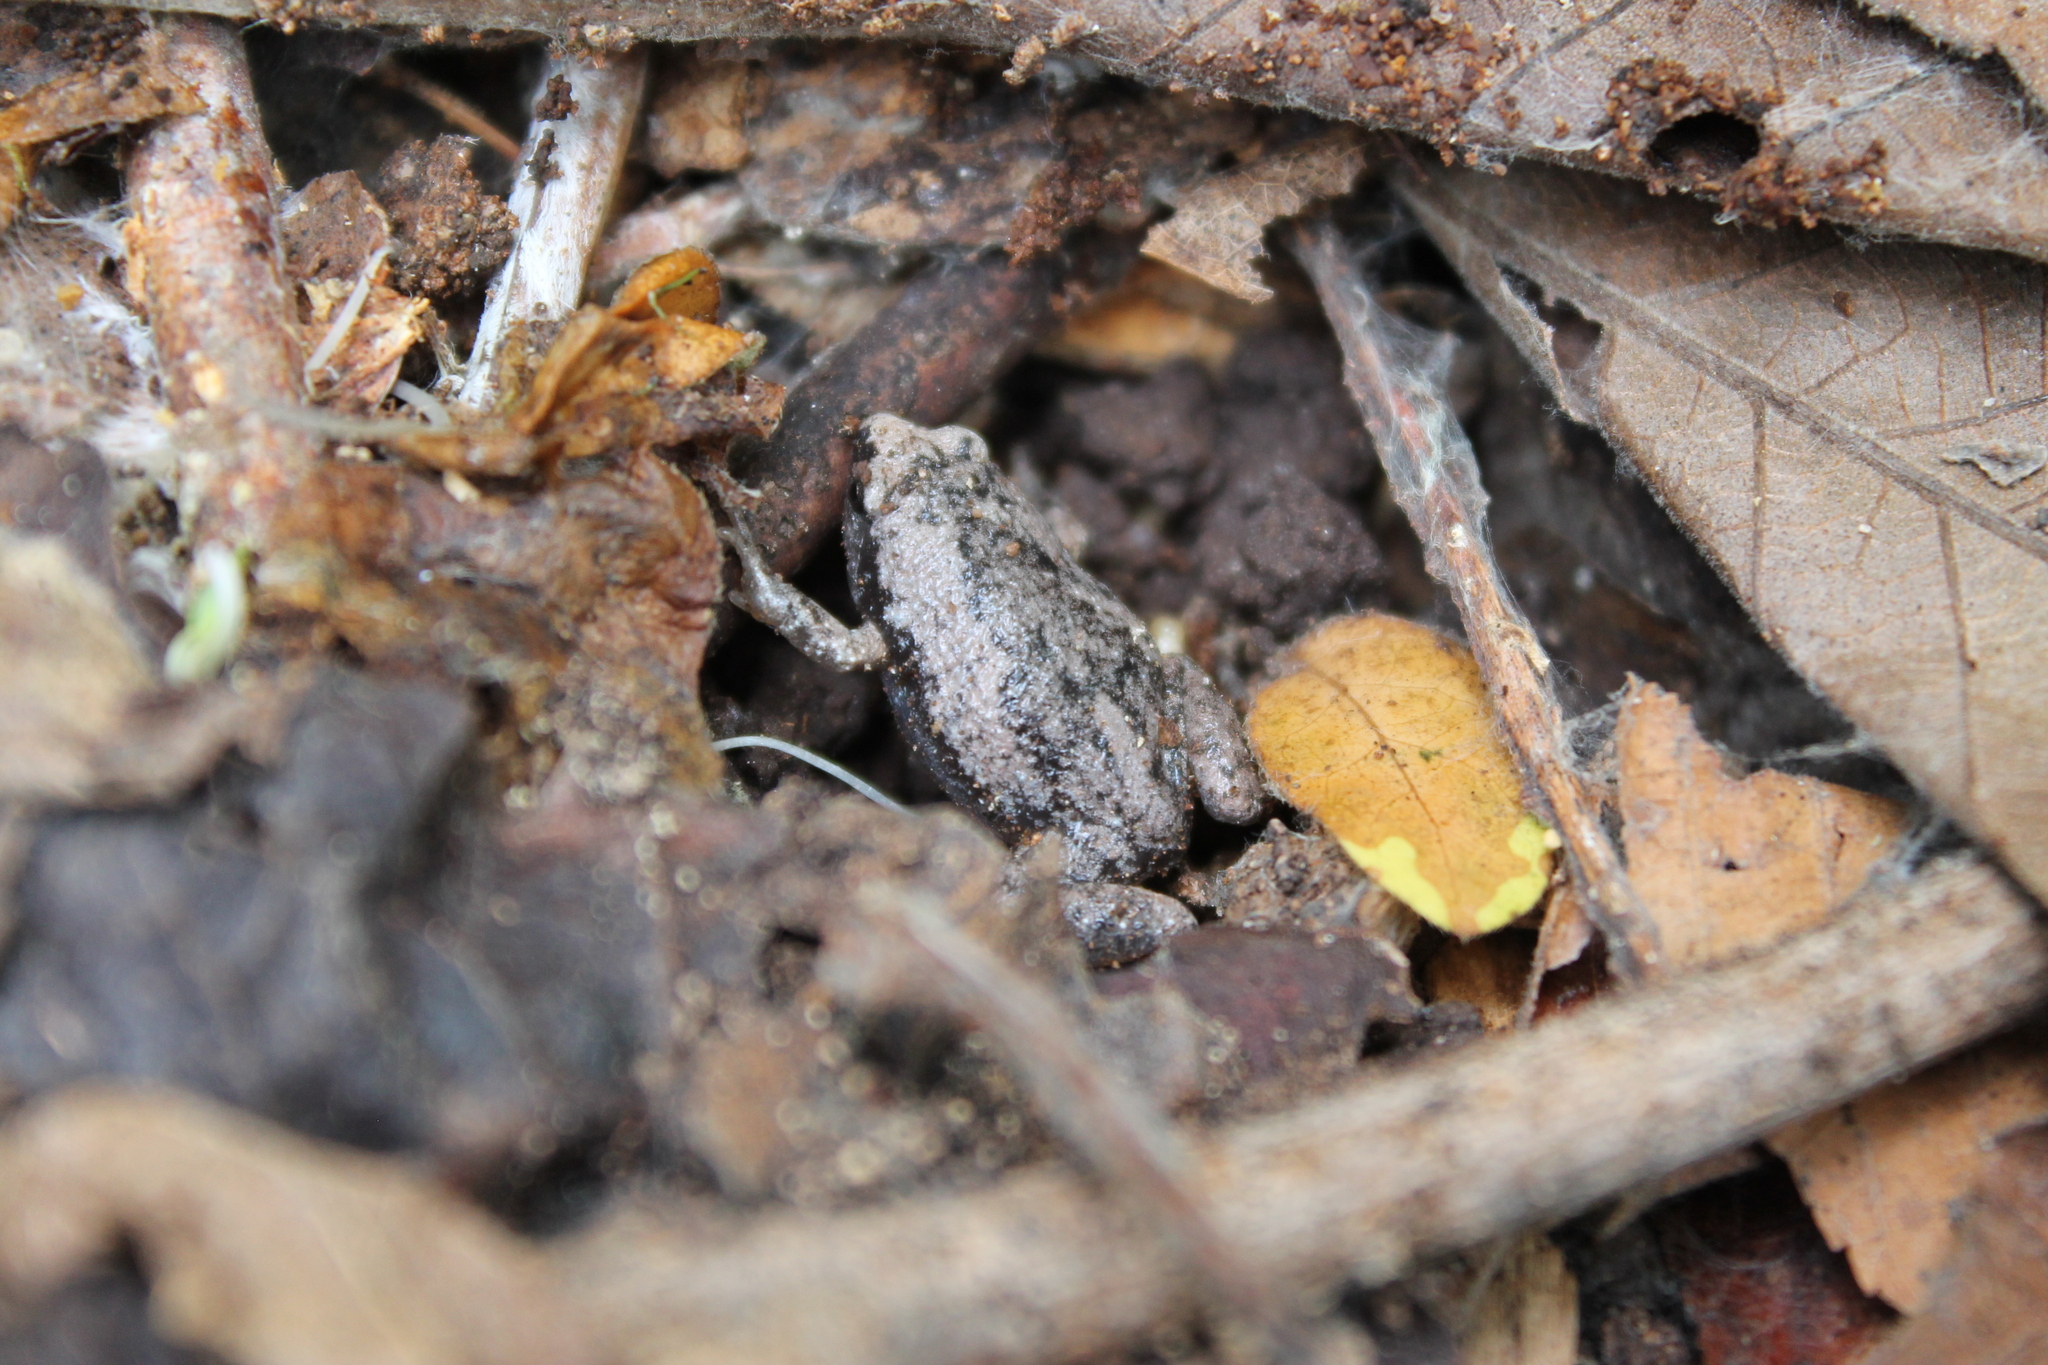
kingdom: Animalia
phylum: Chordata
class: Amphibia
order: Anura
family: Microhylidae
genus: Gastrophryne
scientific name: Gastrophryne carolinensis
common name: Eastern narrowmouth toad
